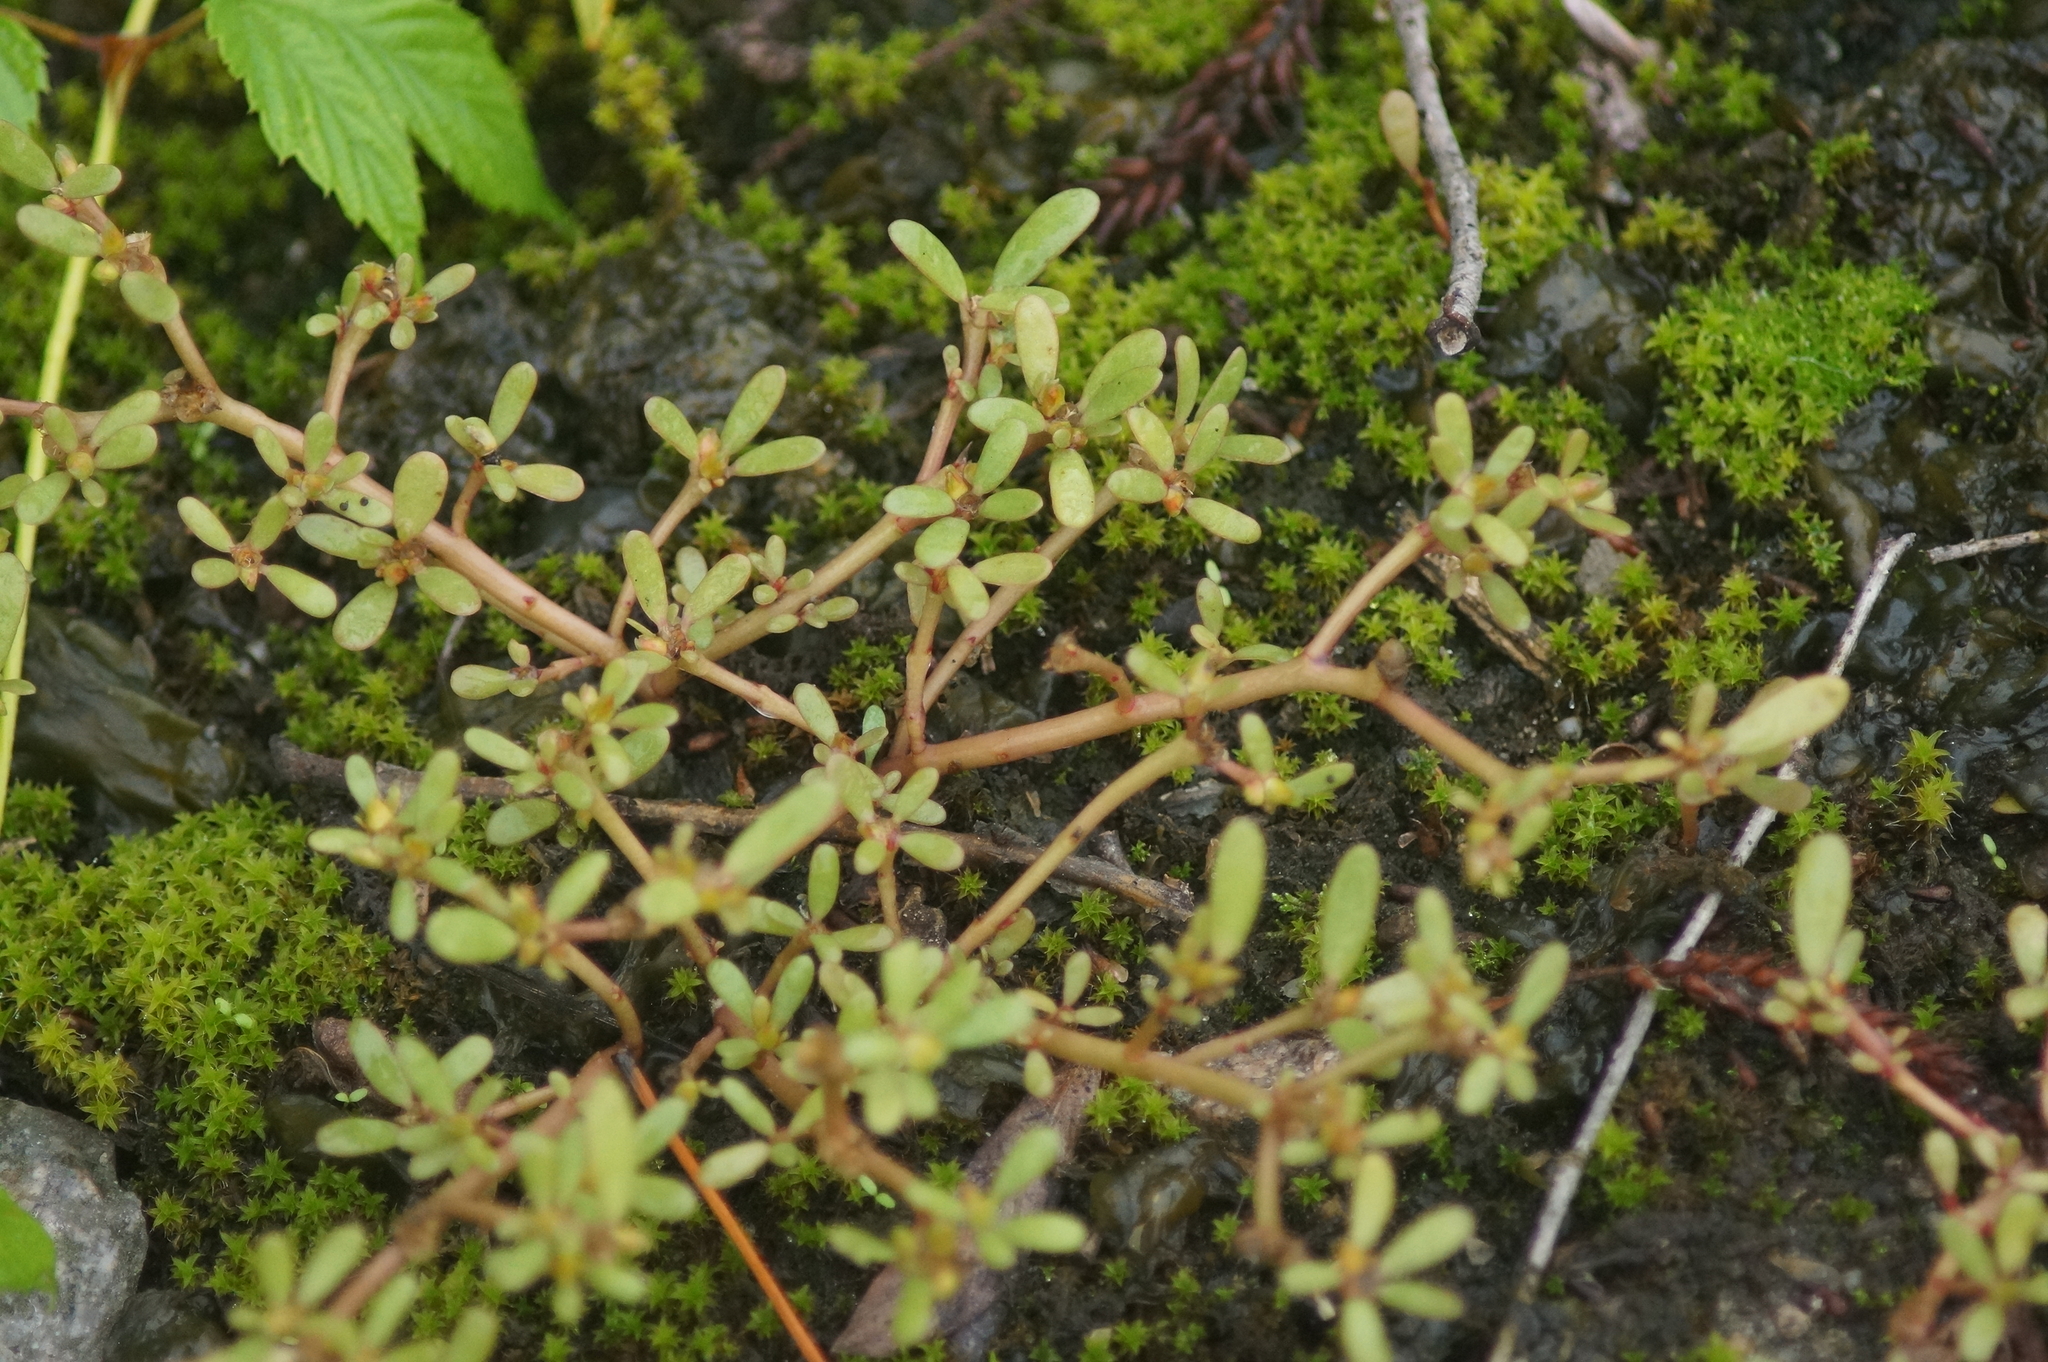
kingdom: Plantae
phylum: Tracheophyta
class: Magnoliopsida
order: Caryophyllales
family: Portulacaceae
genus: Portulaca
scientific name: Portulaca oleracea
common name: Common purslane
